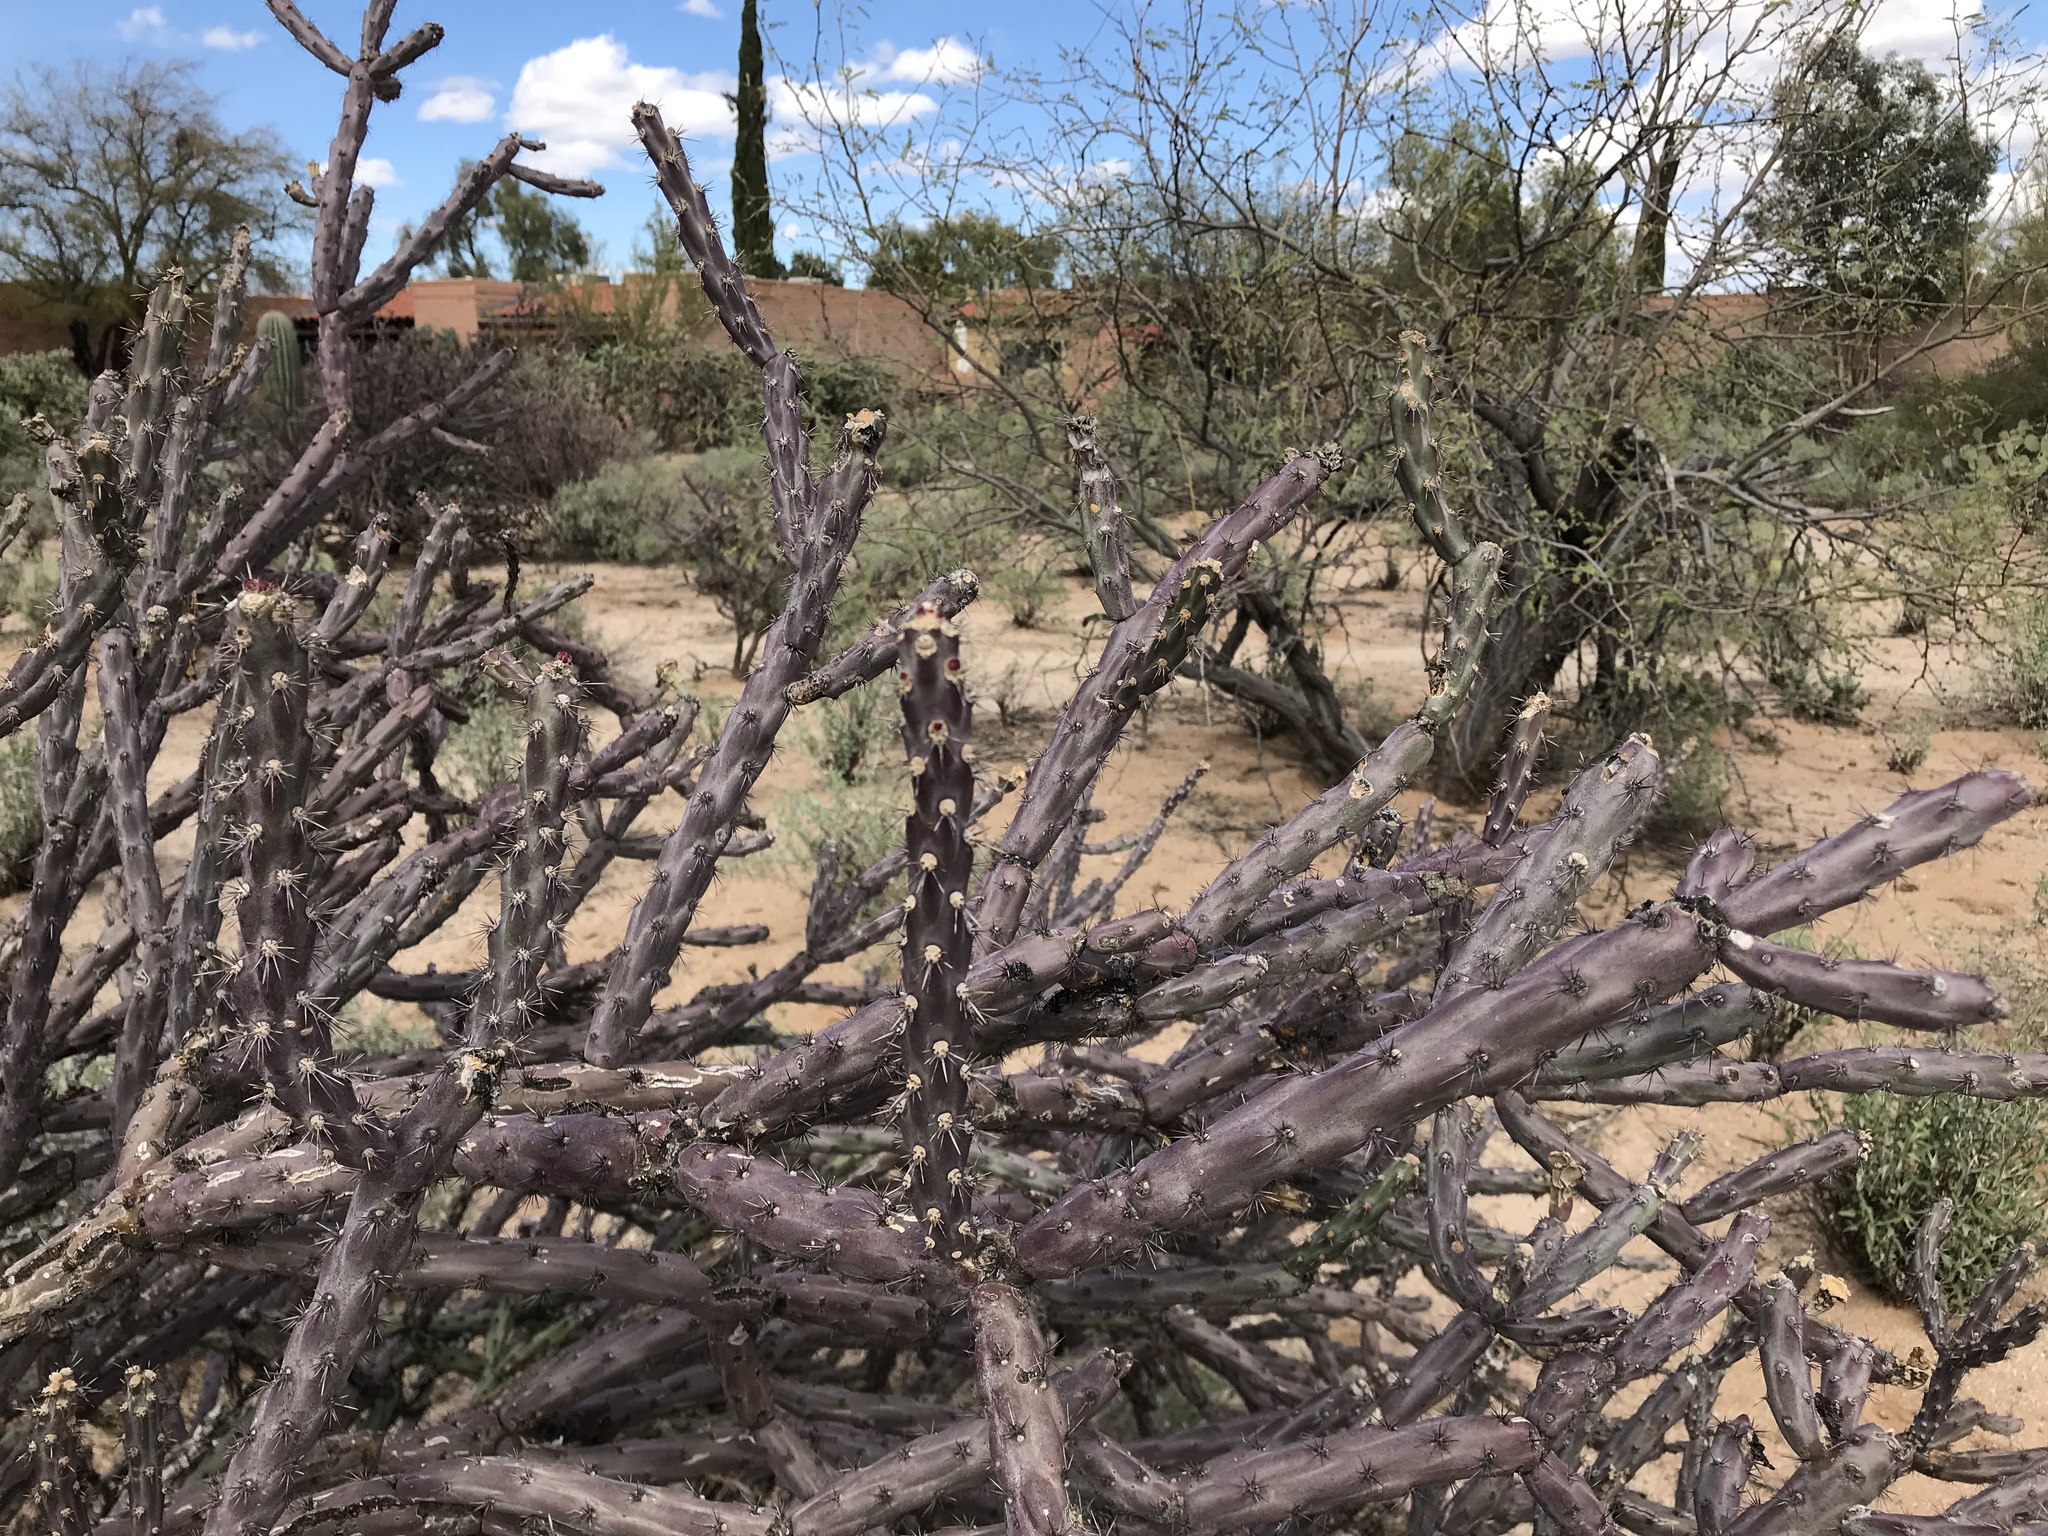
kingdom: Plantae
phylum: Tracheophyta
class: Magnoliopsida
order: Caryophyllales
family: Cactaceae
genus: Cylindropuntia
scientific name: Cylindropuntia thurberi
